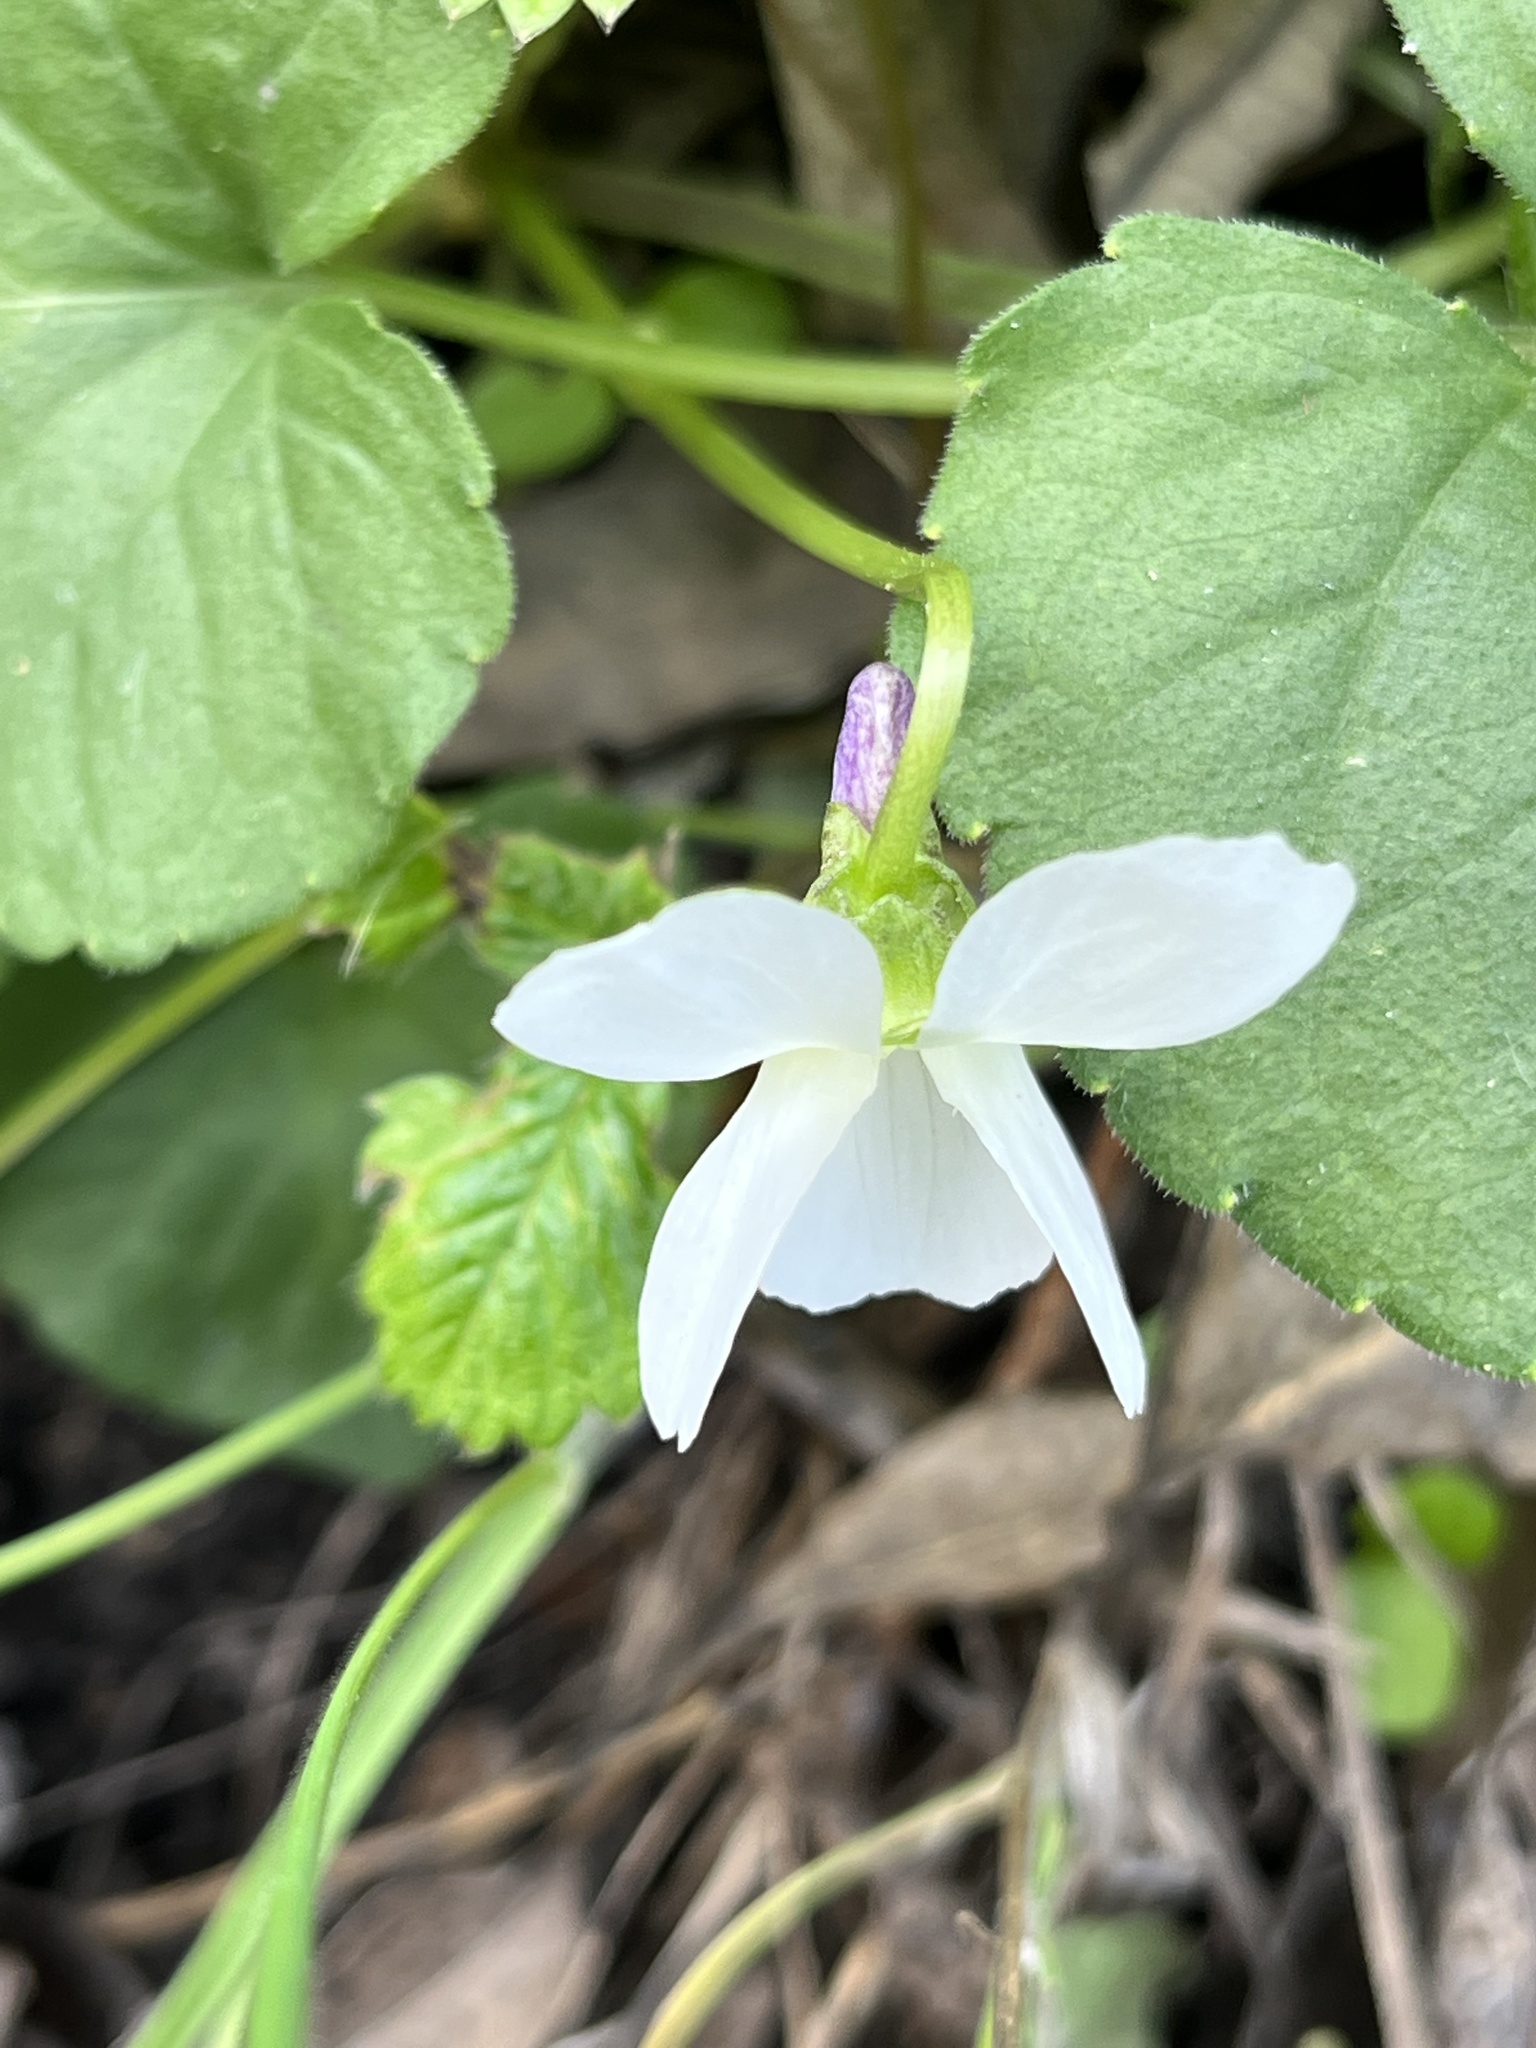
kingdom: Plantae
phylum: Tracheophyta
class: Magnoliopsida
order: Malpighiales
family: Violaceae
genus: Viola
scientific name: Viola odorata
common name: Sweet violet
